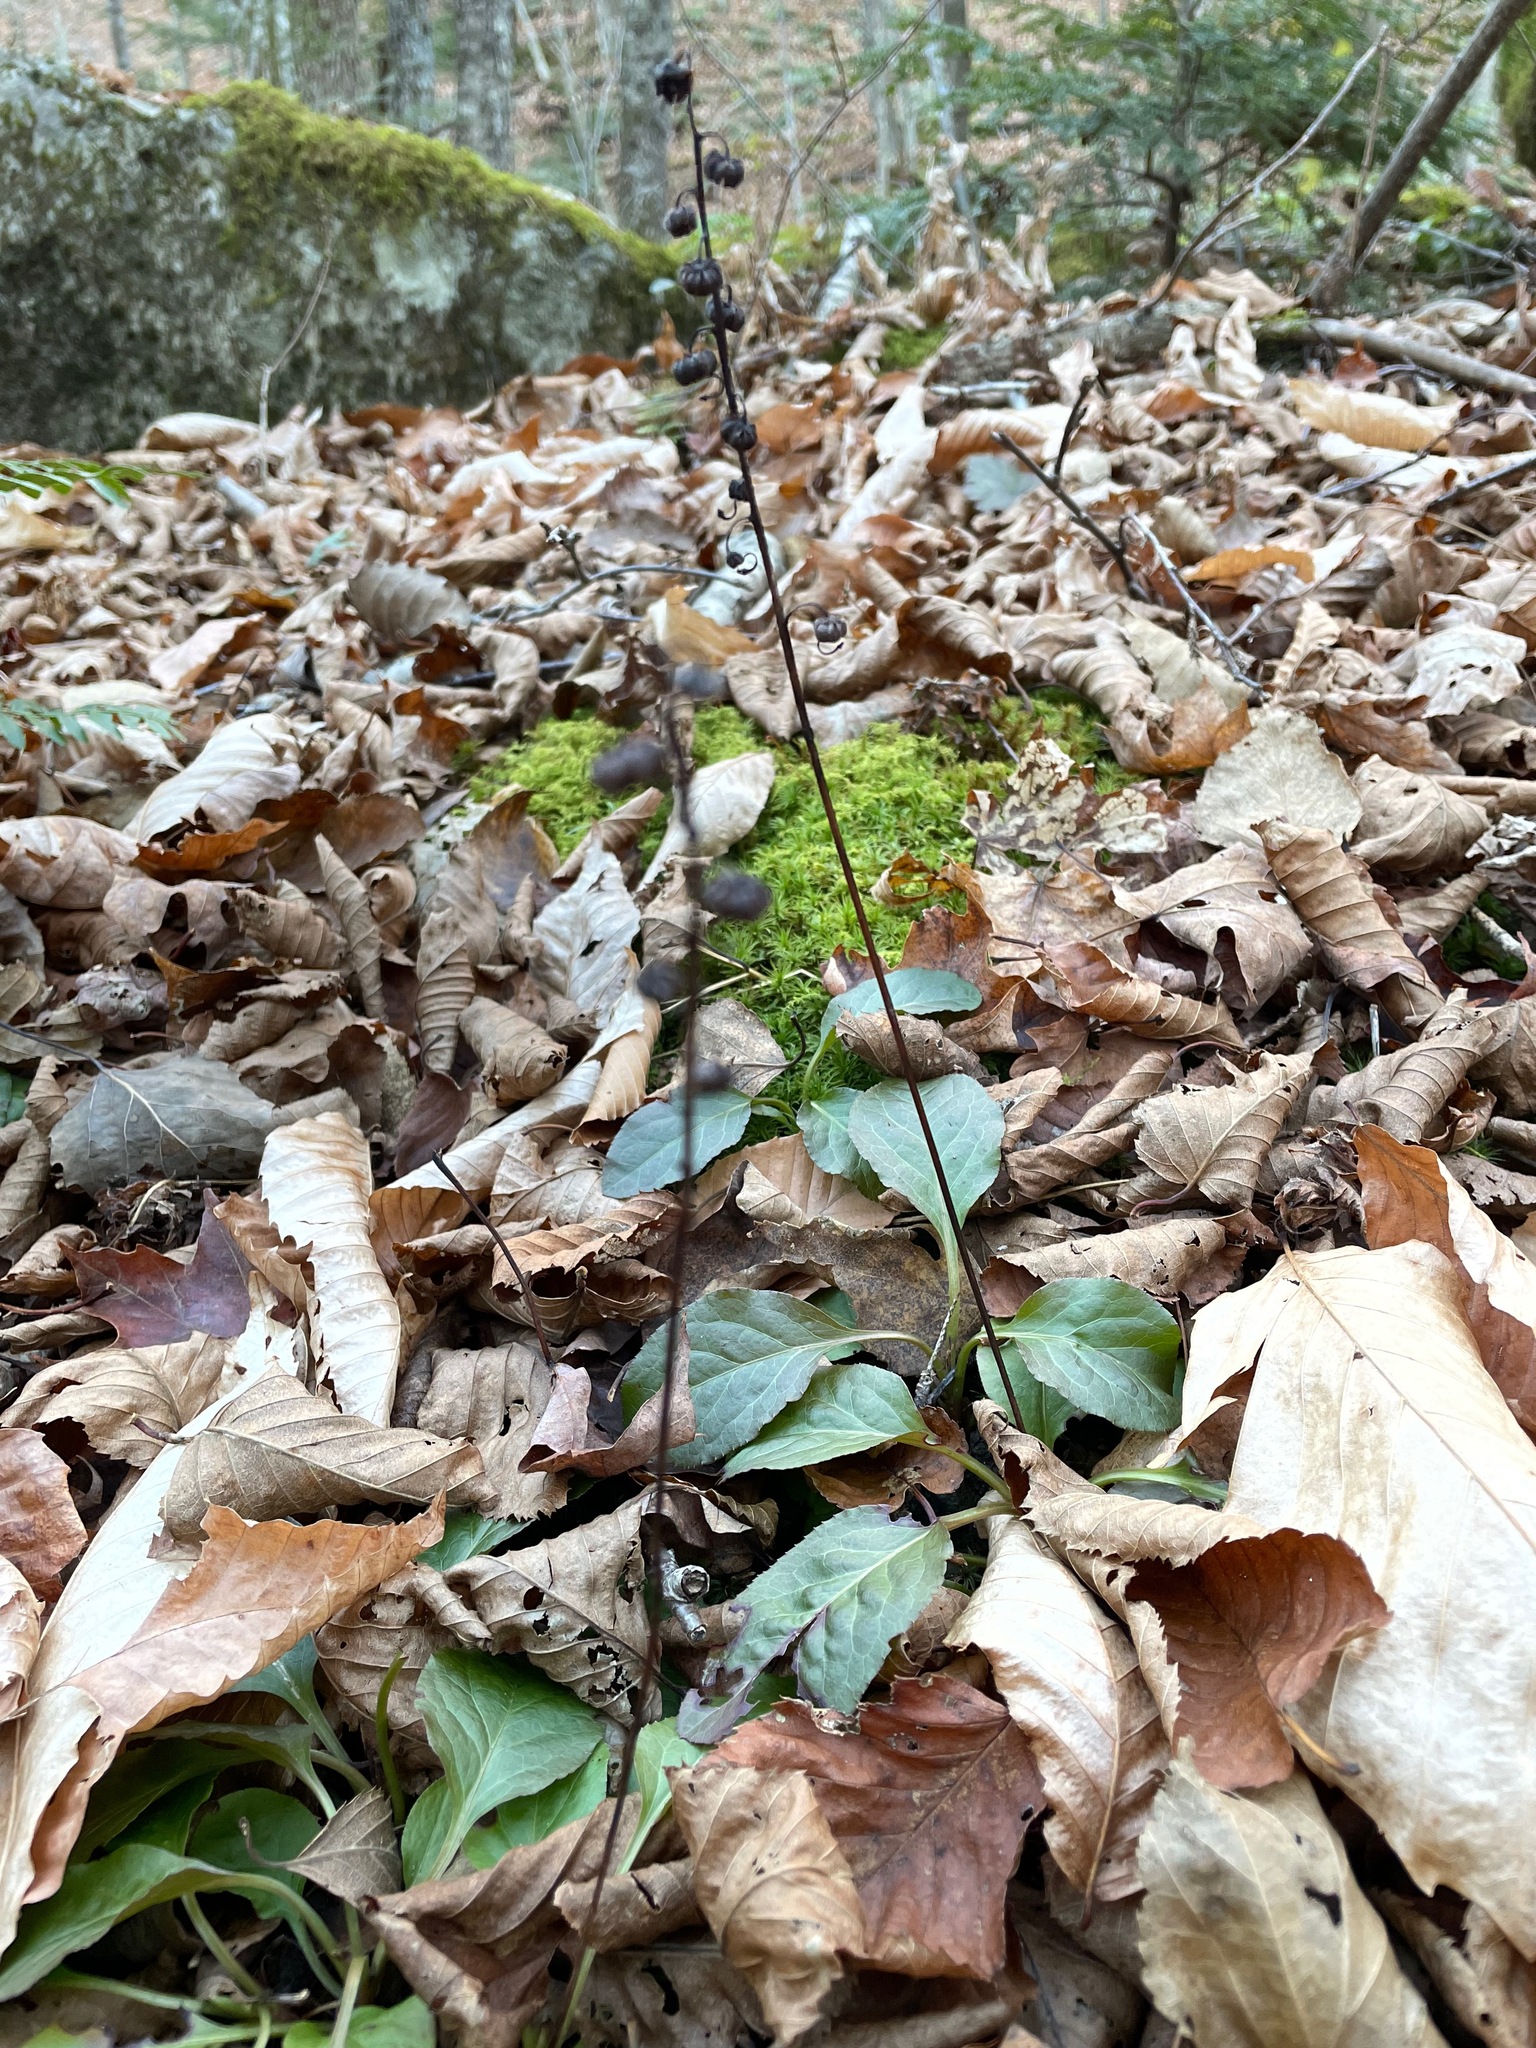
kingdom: Plantae
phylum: Tracheophyta
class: Magnoliopsida
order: Ericales
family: Ericaceae
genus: Pyrola
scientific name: Pyrola elliptica
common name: Shinleaf
